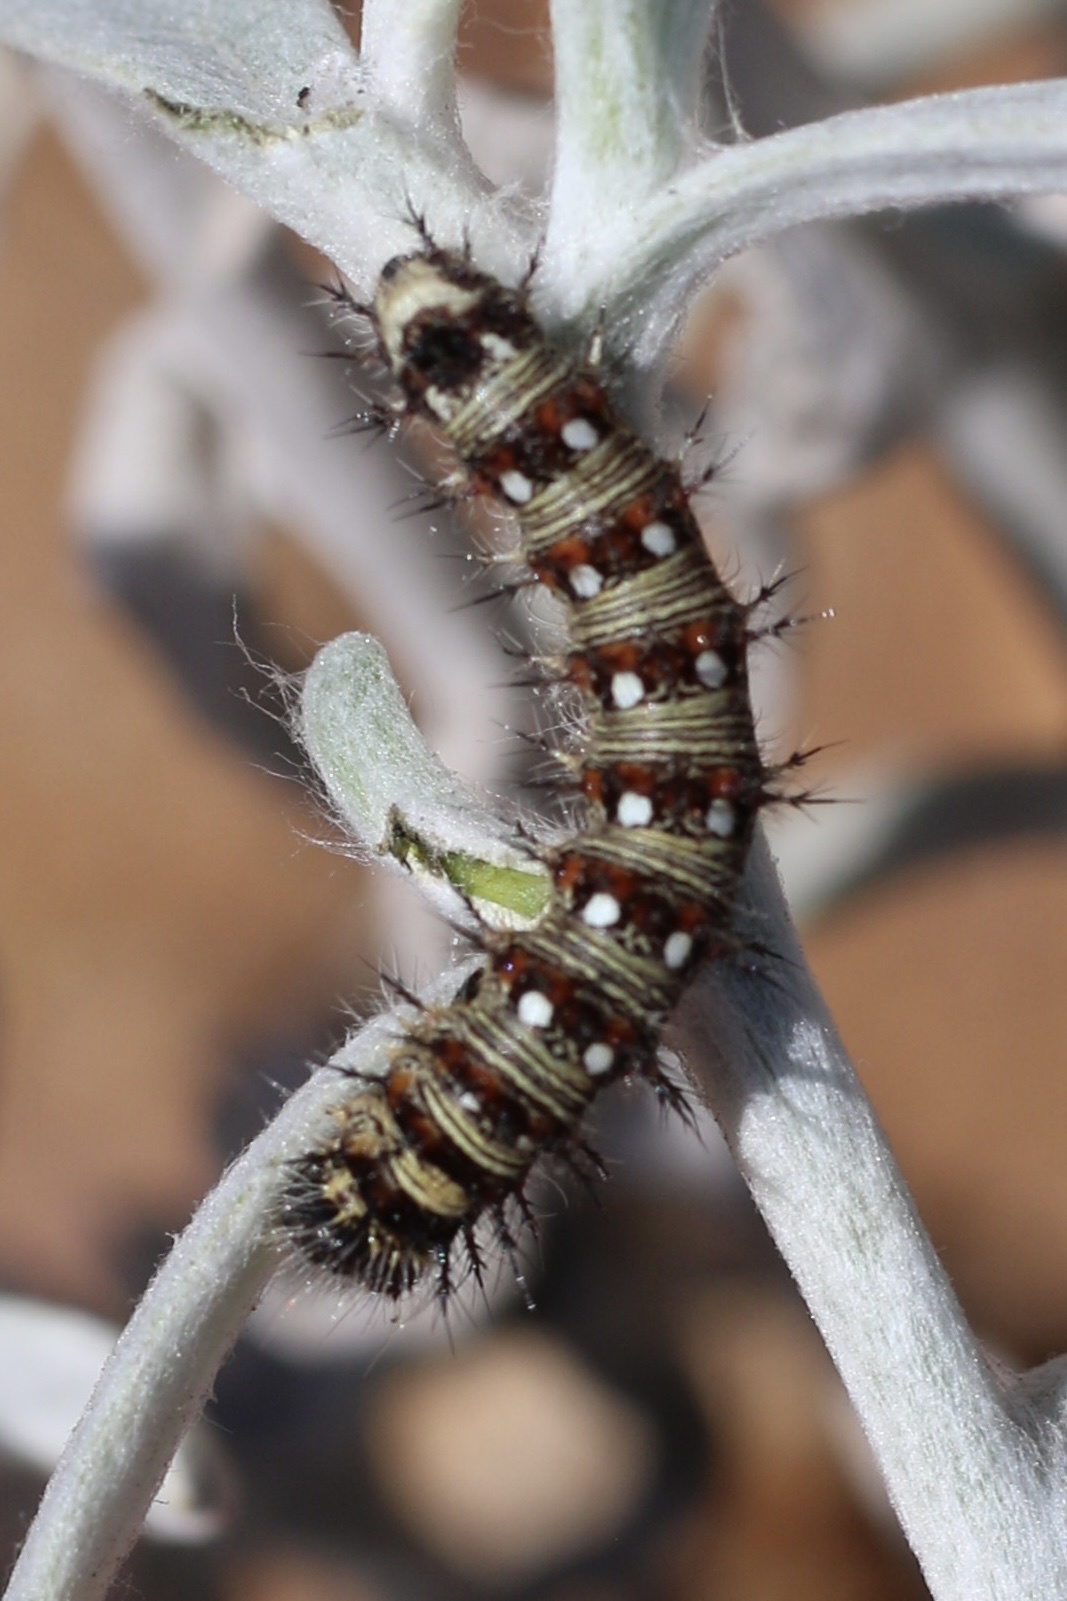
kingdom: Animalia
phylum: Arthropoda
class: Insecta
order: Lepidoptera
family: Nymphalidae
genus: Vanessa
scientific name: Vanessa virginiensis
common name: American lady
